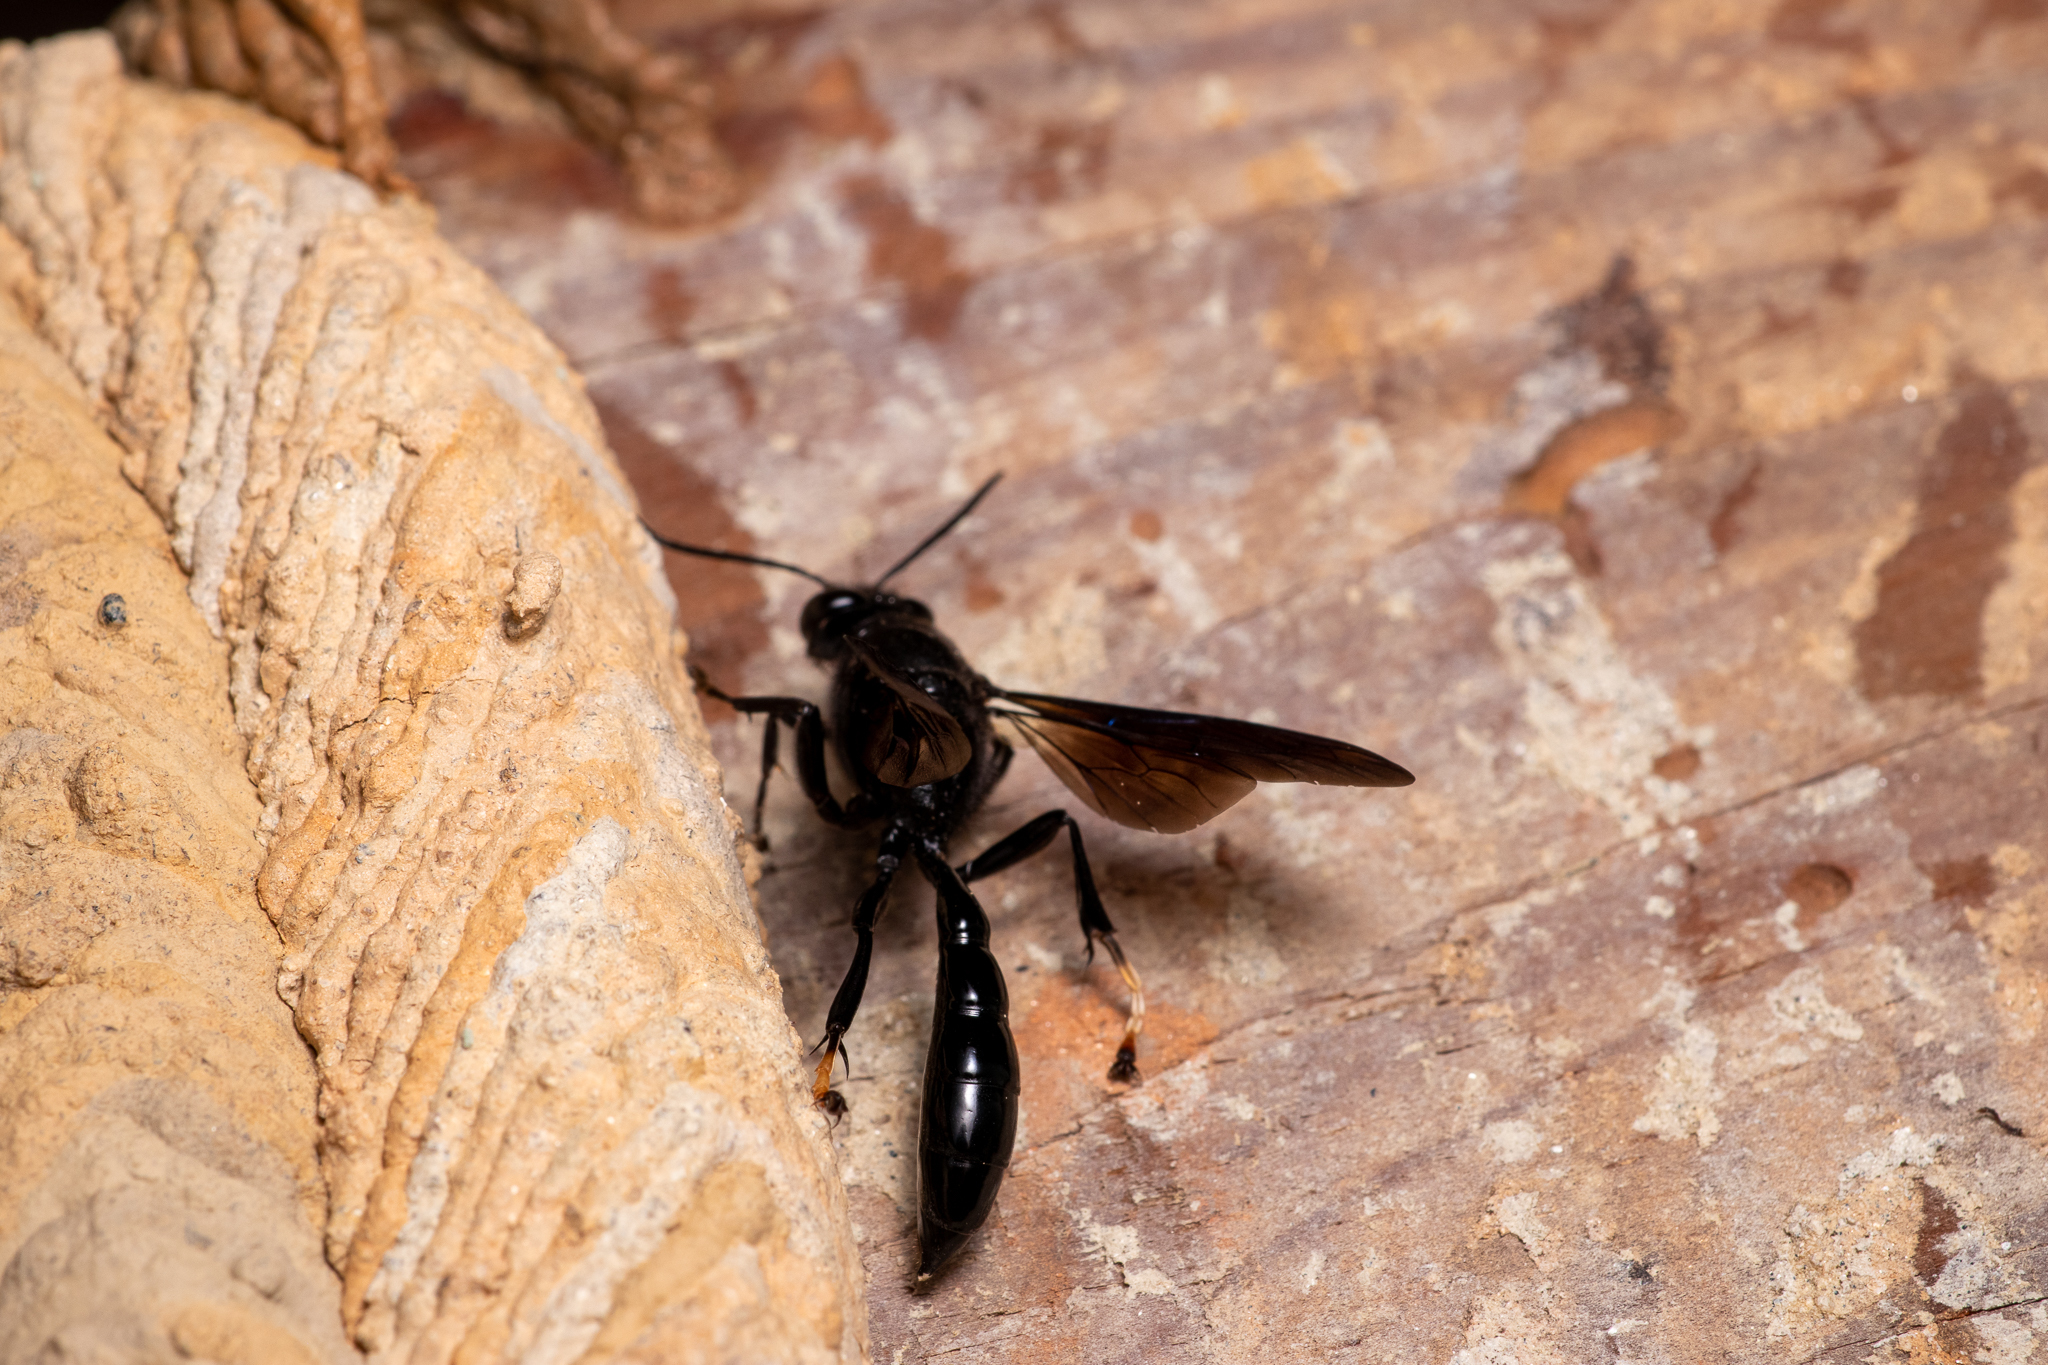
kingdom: Animalia
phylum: Arthropoda
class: Insecta
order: Hymenoptera
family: Crabronidae
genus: Trypoxylon
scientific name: Trypoxylon politum
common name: Organ-pipe mud-dauber wasp
